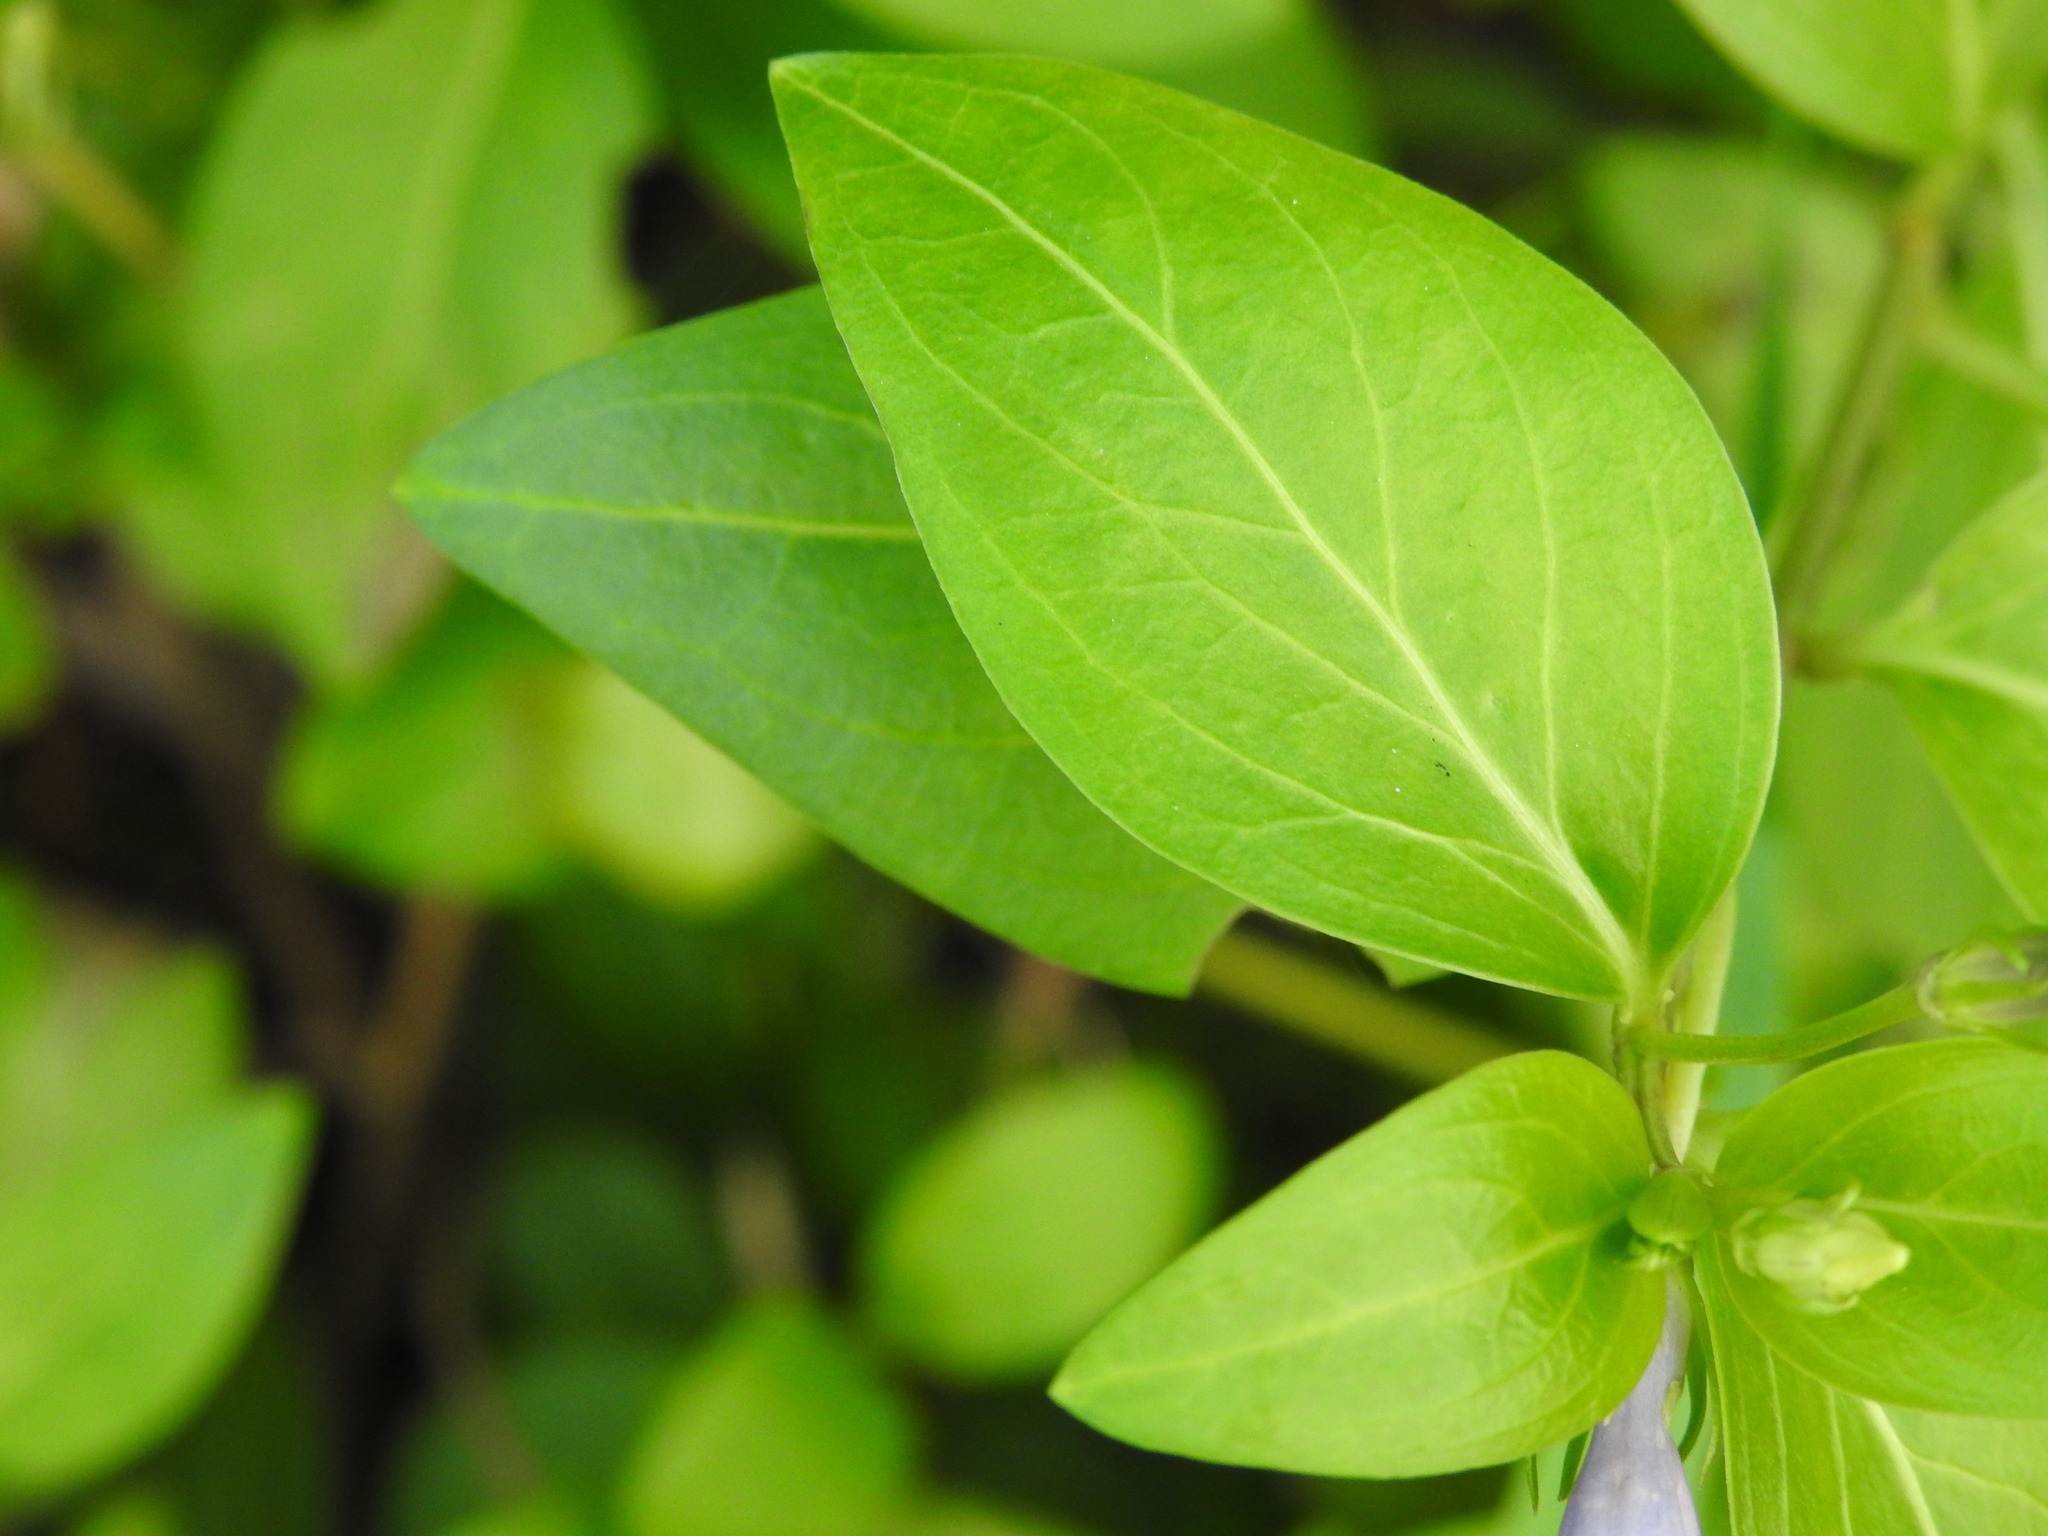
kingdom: Plantae
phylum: Tracheophyta
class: Magnoliopsida
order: Gentianales
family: Apocynaceae
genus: Vinca
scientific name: Vinca difformis
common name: Intermediate periwinkle
